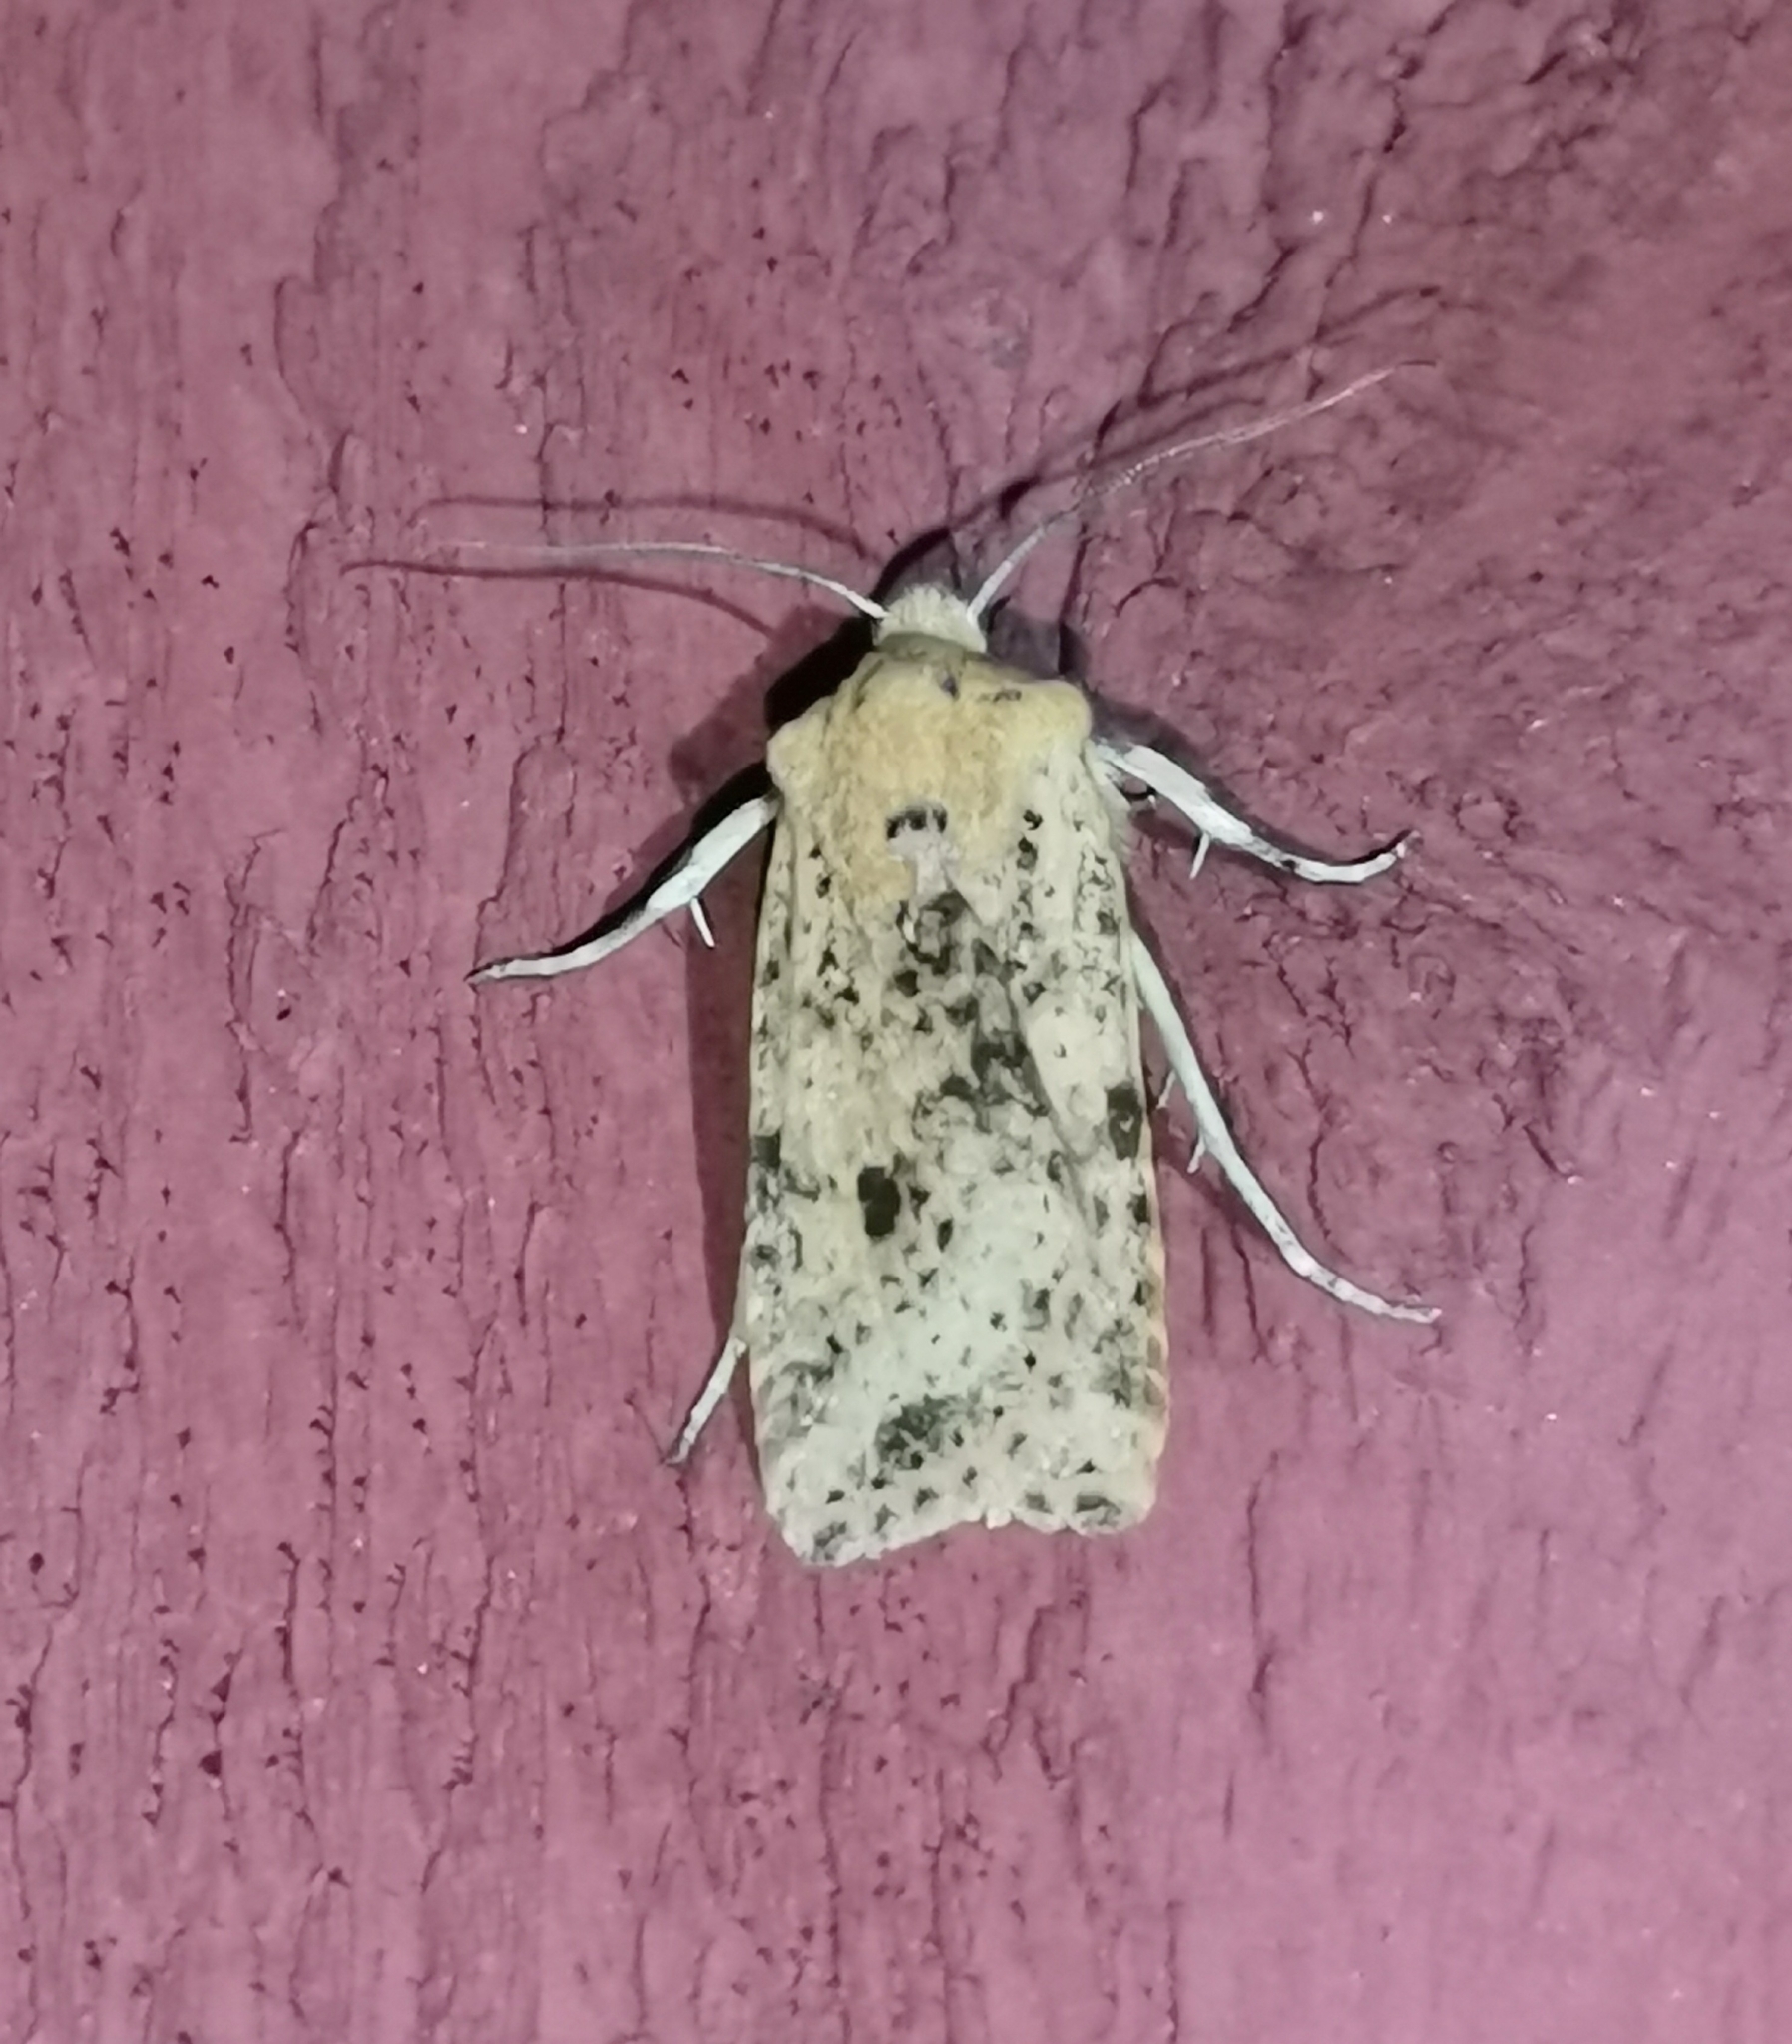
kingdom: Animalia
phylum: Arthropoda
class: Insecta
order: Lepidoptera
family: Noctuidae
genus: Conistra
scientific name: Conistra rubiginea
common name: Dotted chestnut
